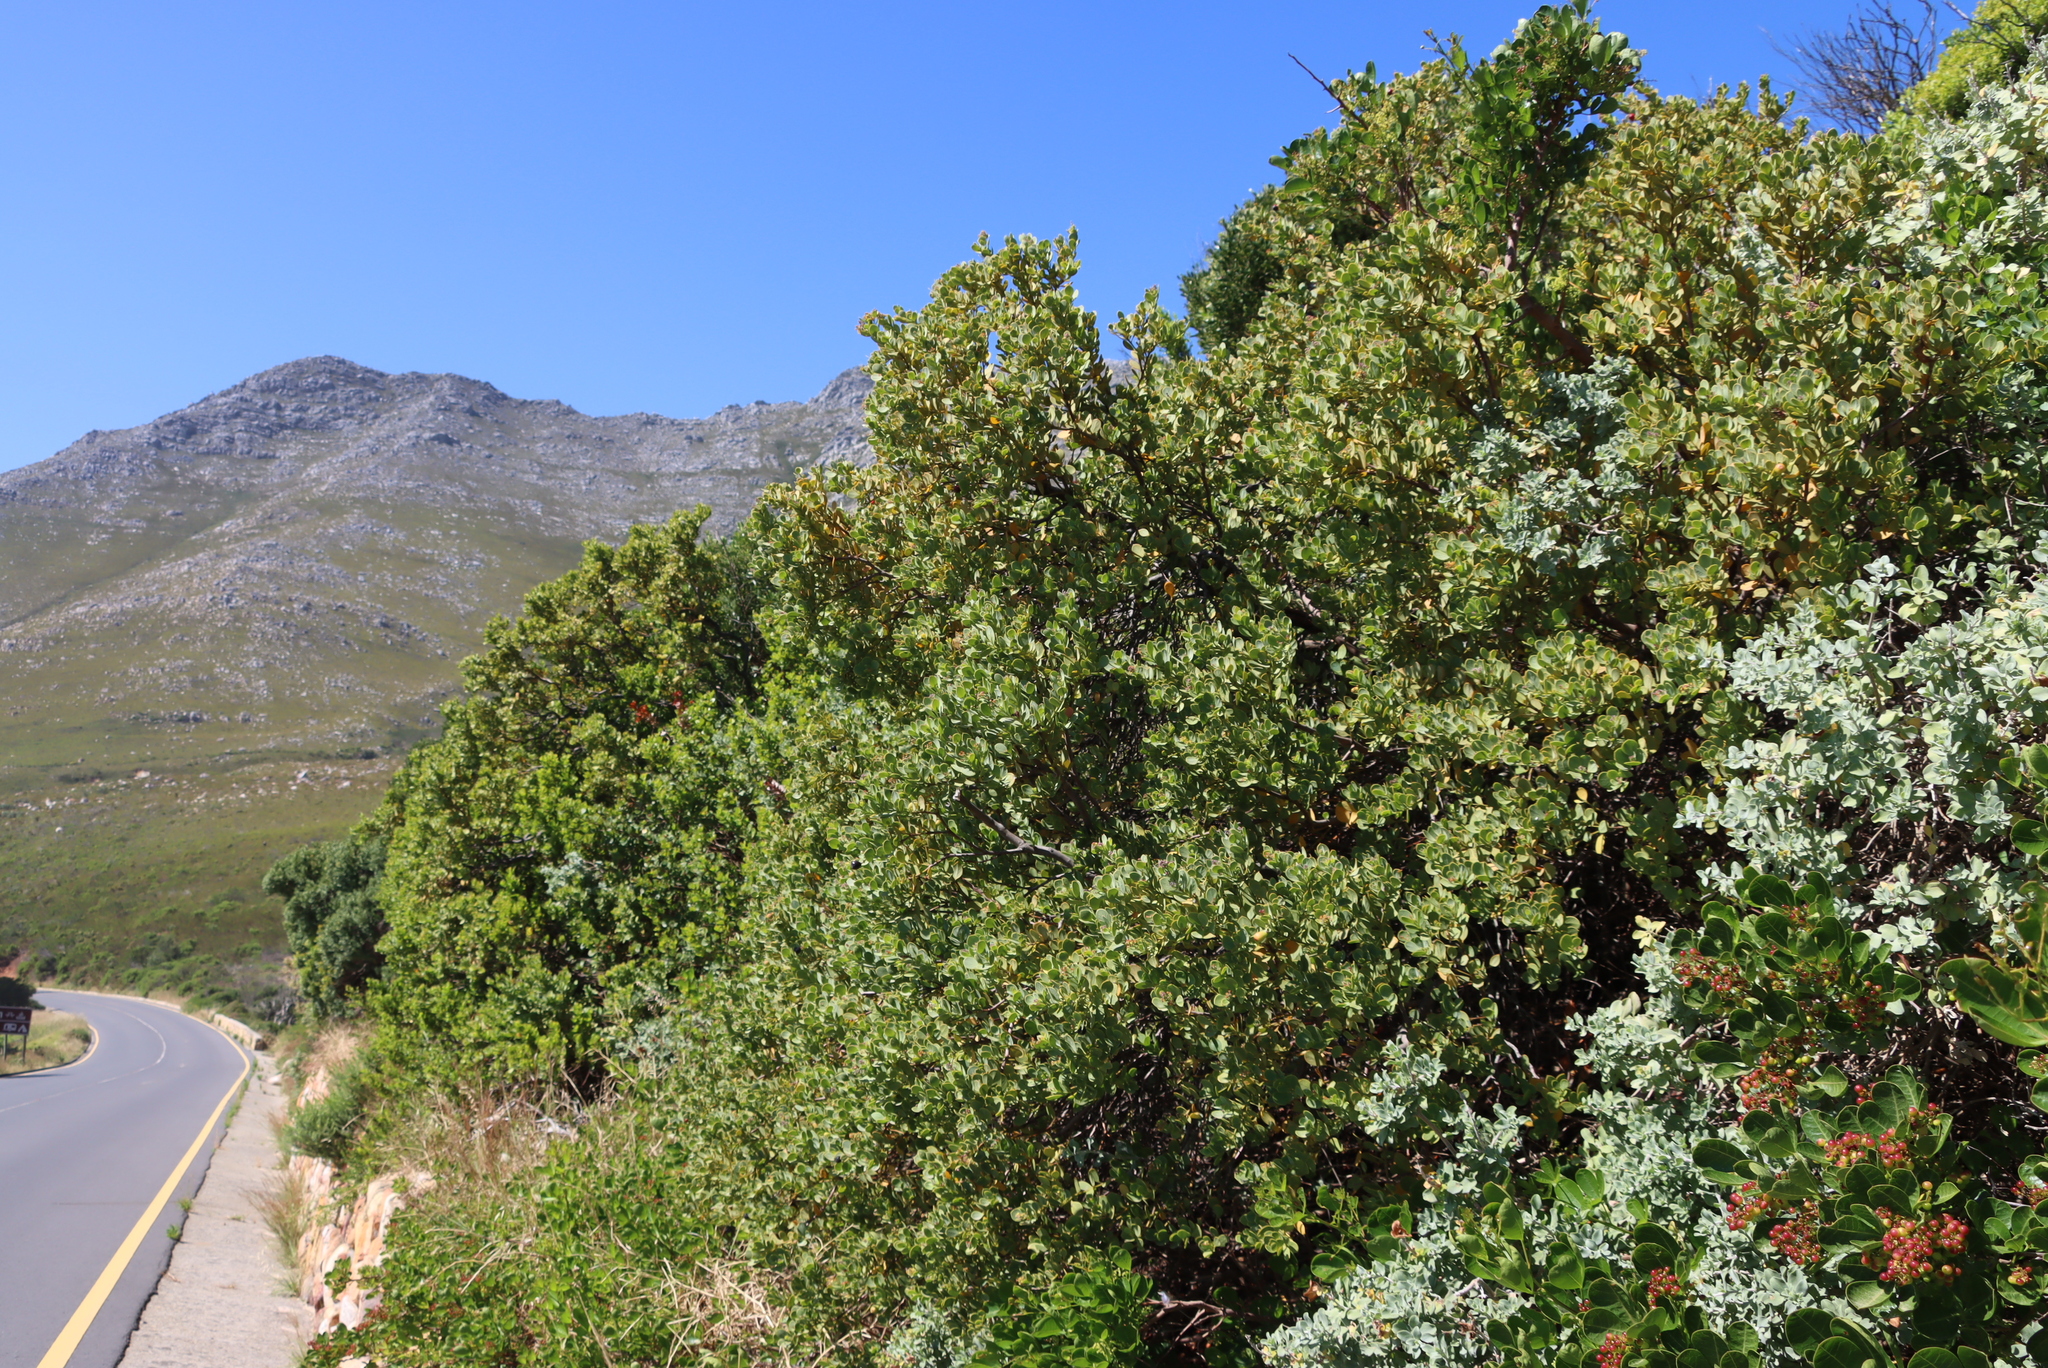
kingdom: Plantae
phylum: Tracheophyta
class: Magnoliopsida
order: Santalales
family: Santalaceae
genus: Osyris
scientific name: Osyris compressa
